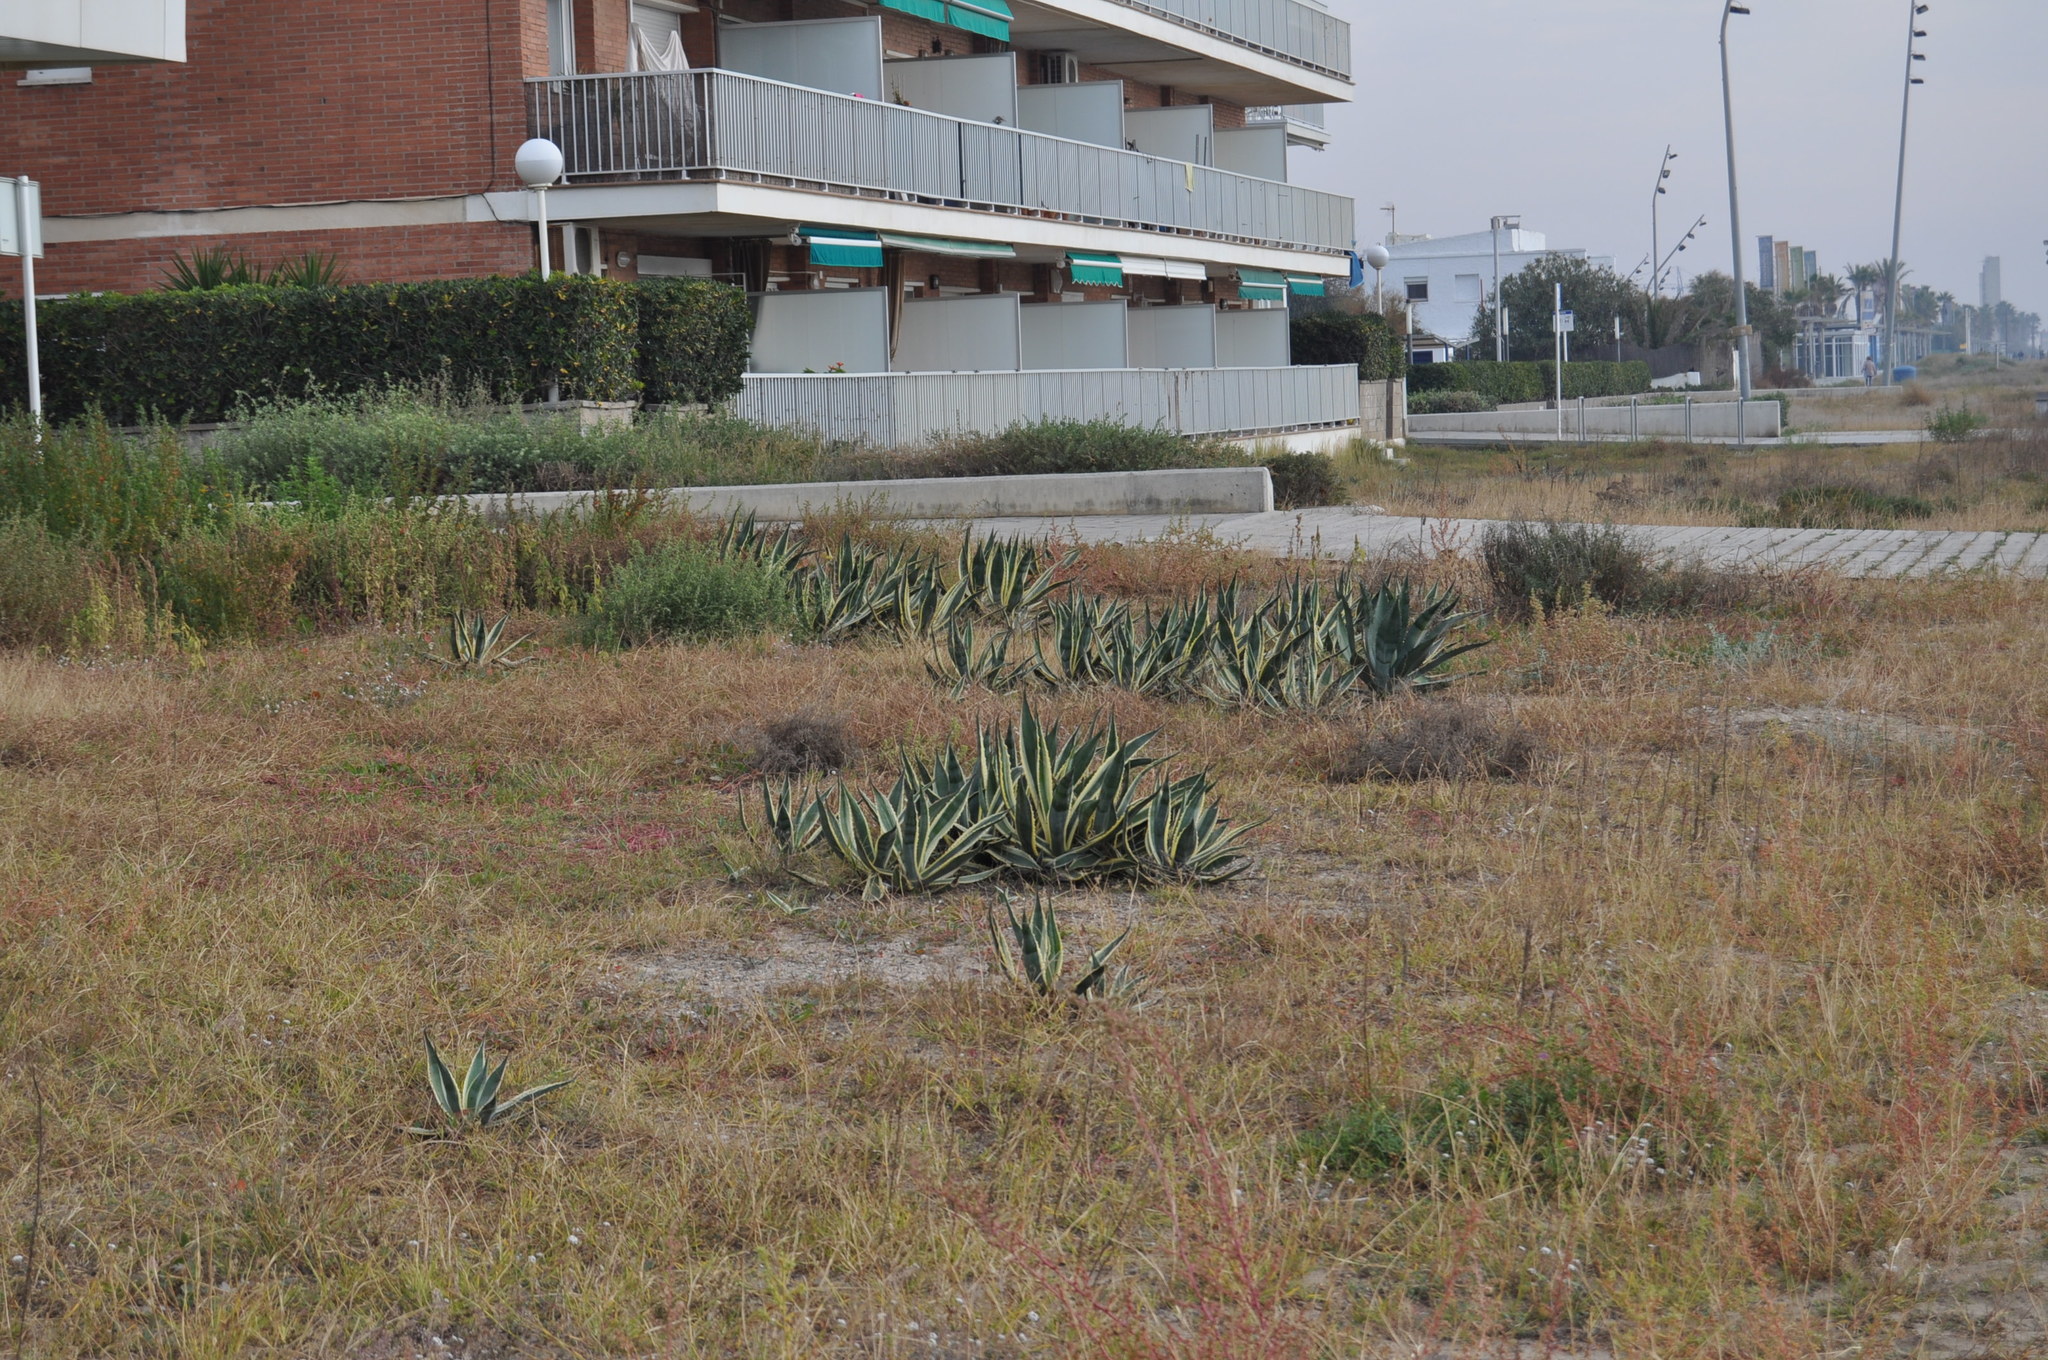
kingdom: Plantae
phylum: Tracheophyta
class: Liliopsida
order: Asparagales
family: Asparagaceae
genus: Agave
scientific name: Agave americana
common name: Centuryplant
